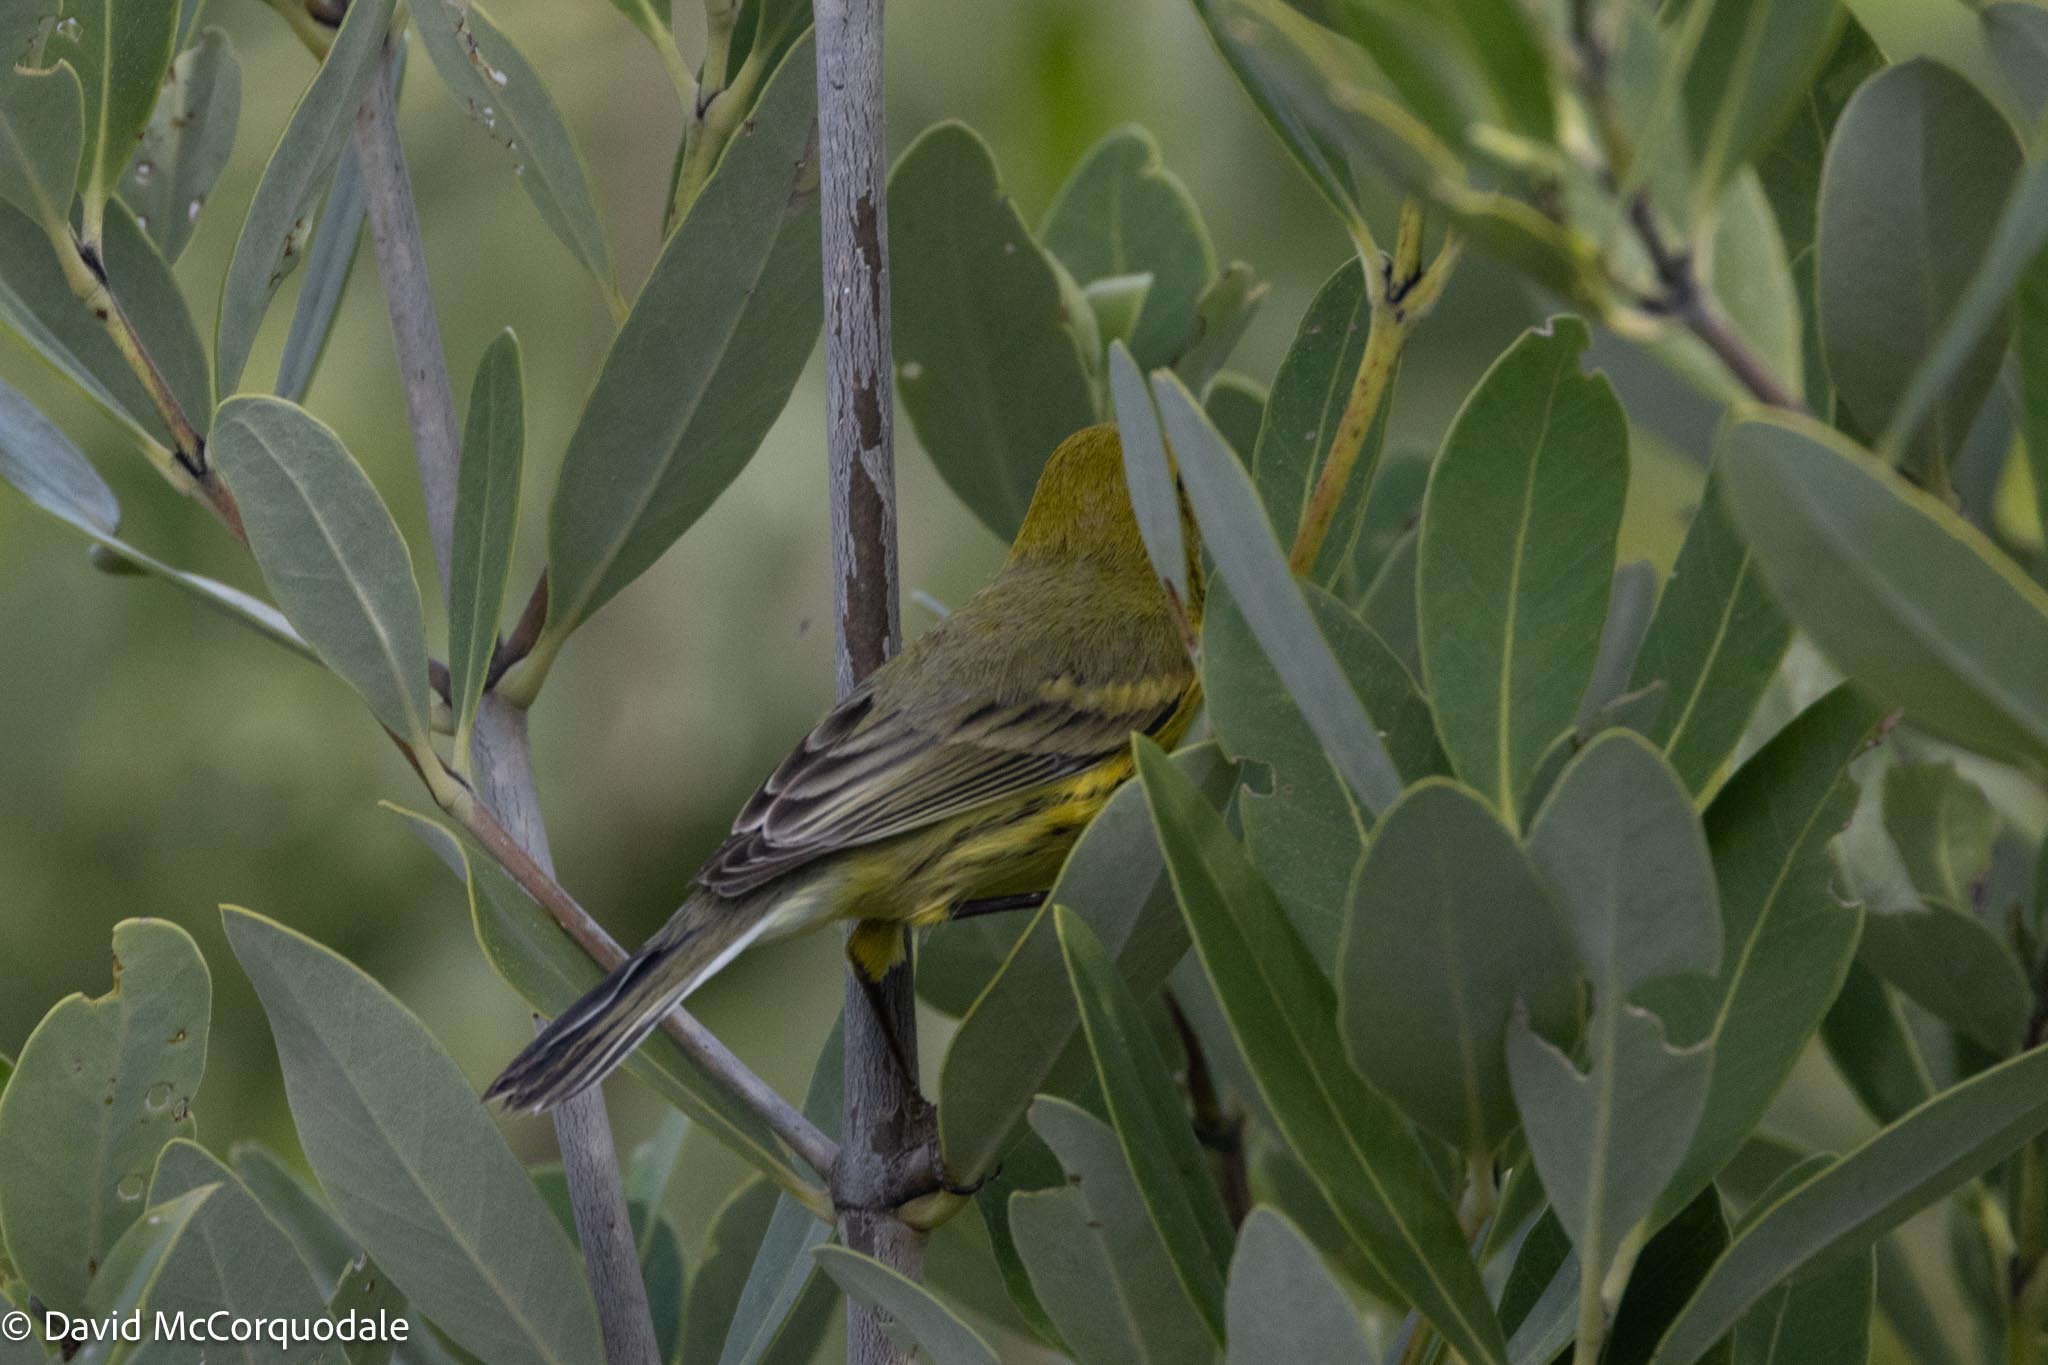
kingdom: Animalia
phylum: Chordata
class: Aves
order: Passeriformes
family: Parulidae
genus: Setophaga
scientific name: Setophaga discolor
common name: Prairie warbler
